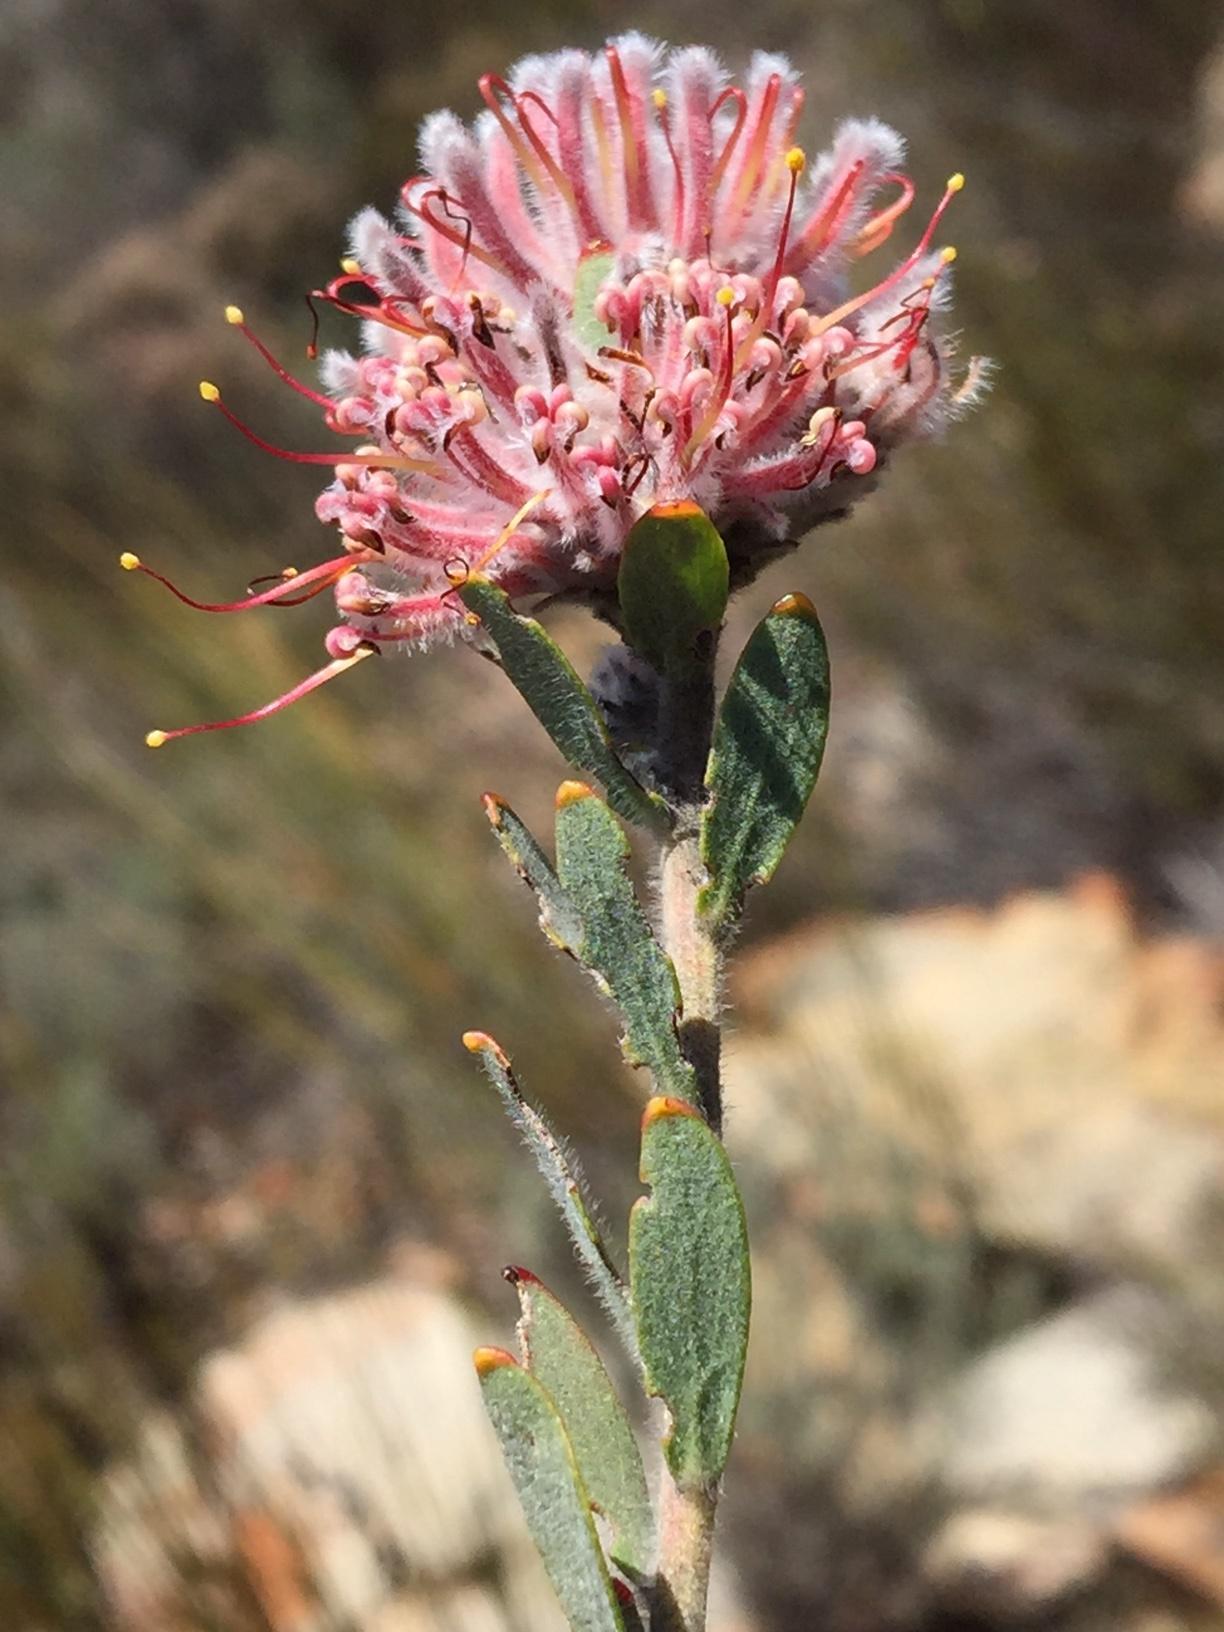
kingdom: Plantae
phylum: Tracheophyta
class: Magnoliopsida
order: Proteales
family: Proteaceae
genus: Leucospermum
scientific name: Leucospermum calligerum
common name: Arid pincushion
